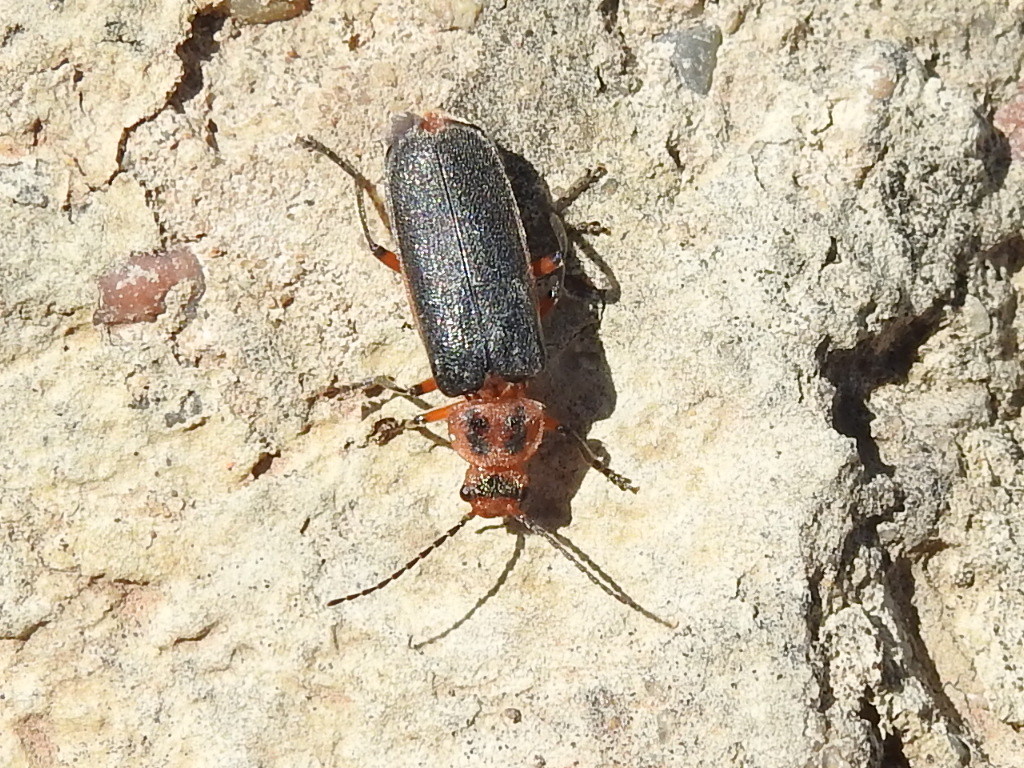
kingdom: Animalia
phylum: Arthropoda
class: Insecta
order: Coleoptera
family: Cantharidae
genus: Atalantycha
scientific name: Atalantycha bilineata
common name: Two-lined leatherwing
